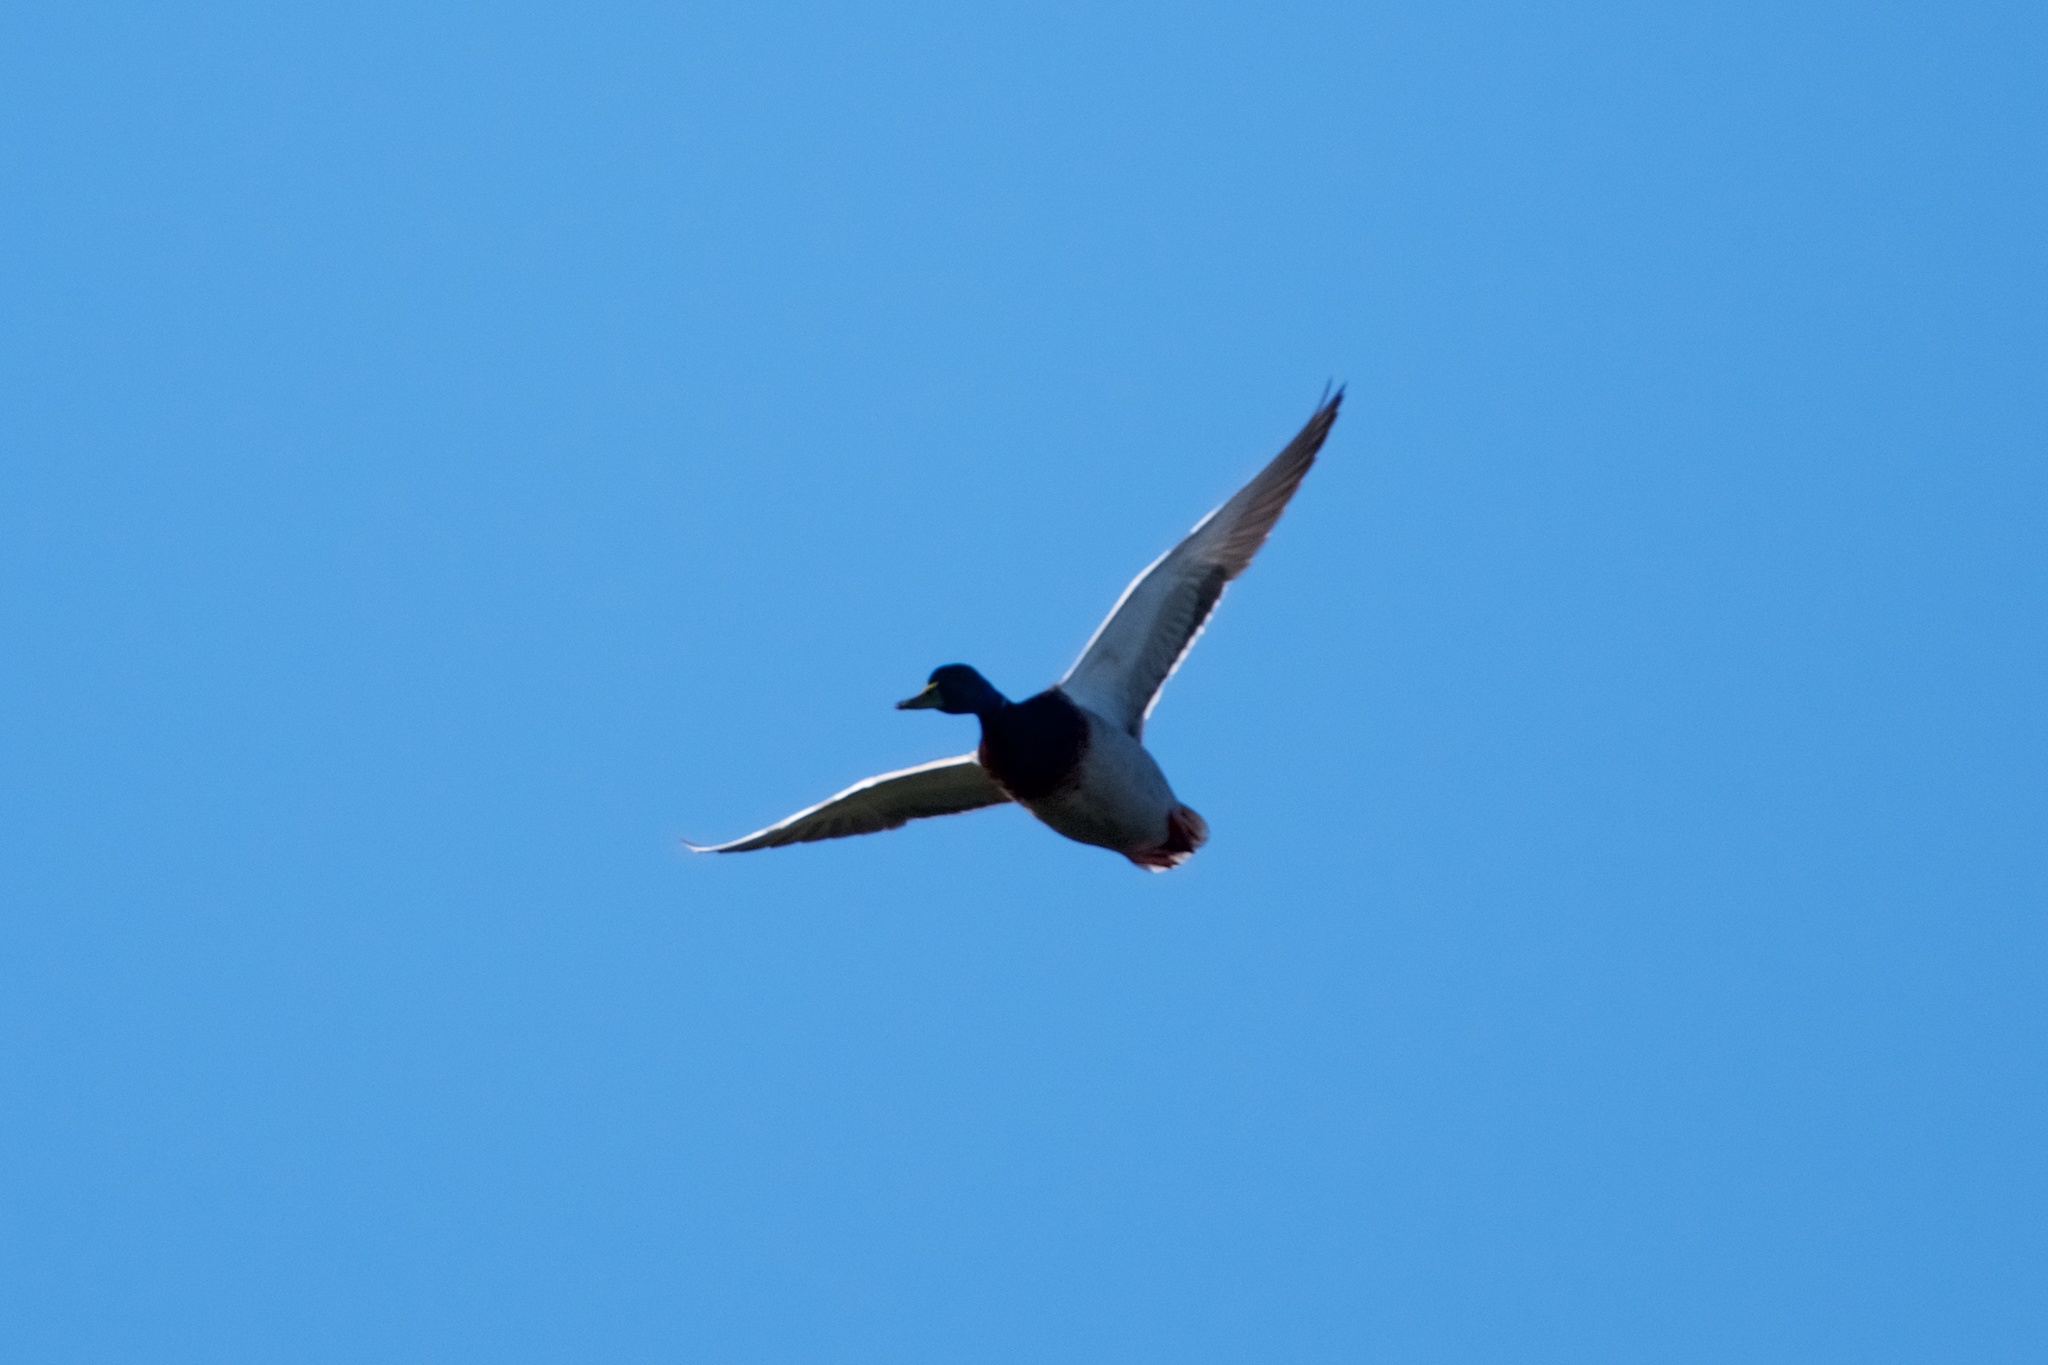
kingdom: Animalia
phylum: Chordata
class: Aves
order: Anseriformes
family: Anatidae
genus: Anas
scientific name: Anas platyrhynchos
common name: Mallard
